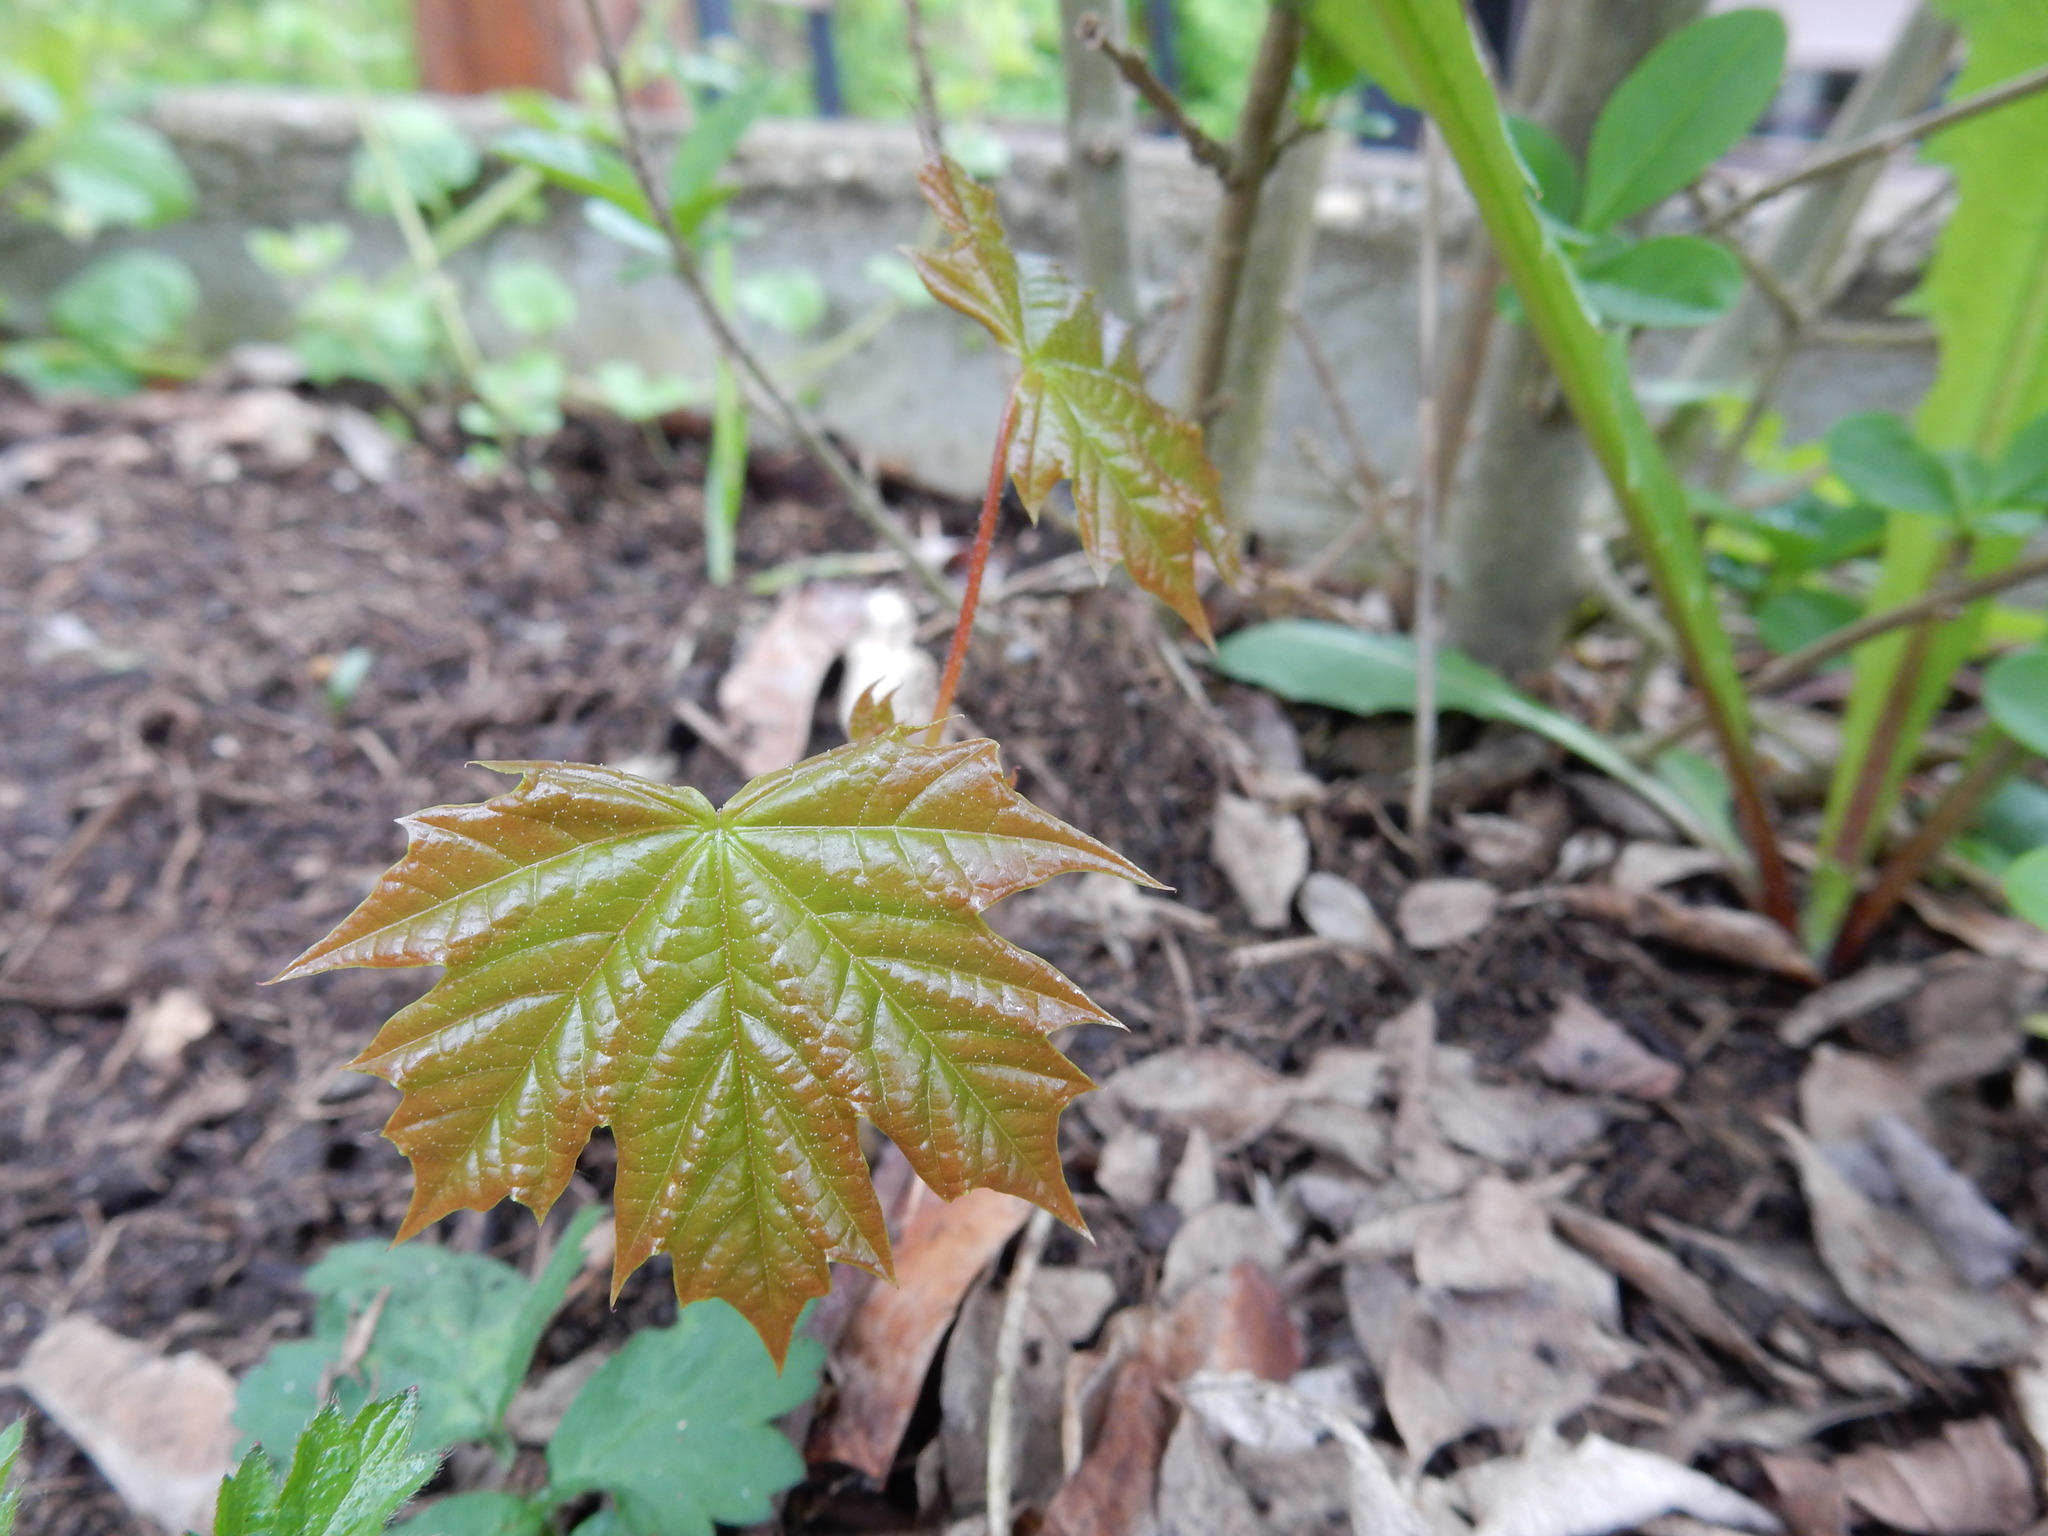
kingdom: Plantae
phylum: Tracheophyta
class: Magnoliopsida
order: Sapindales
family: Sapindaceae
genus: Acer
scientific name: Acer platanoides
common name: Norway maple
